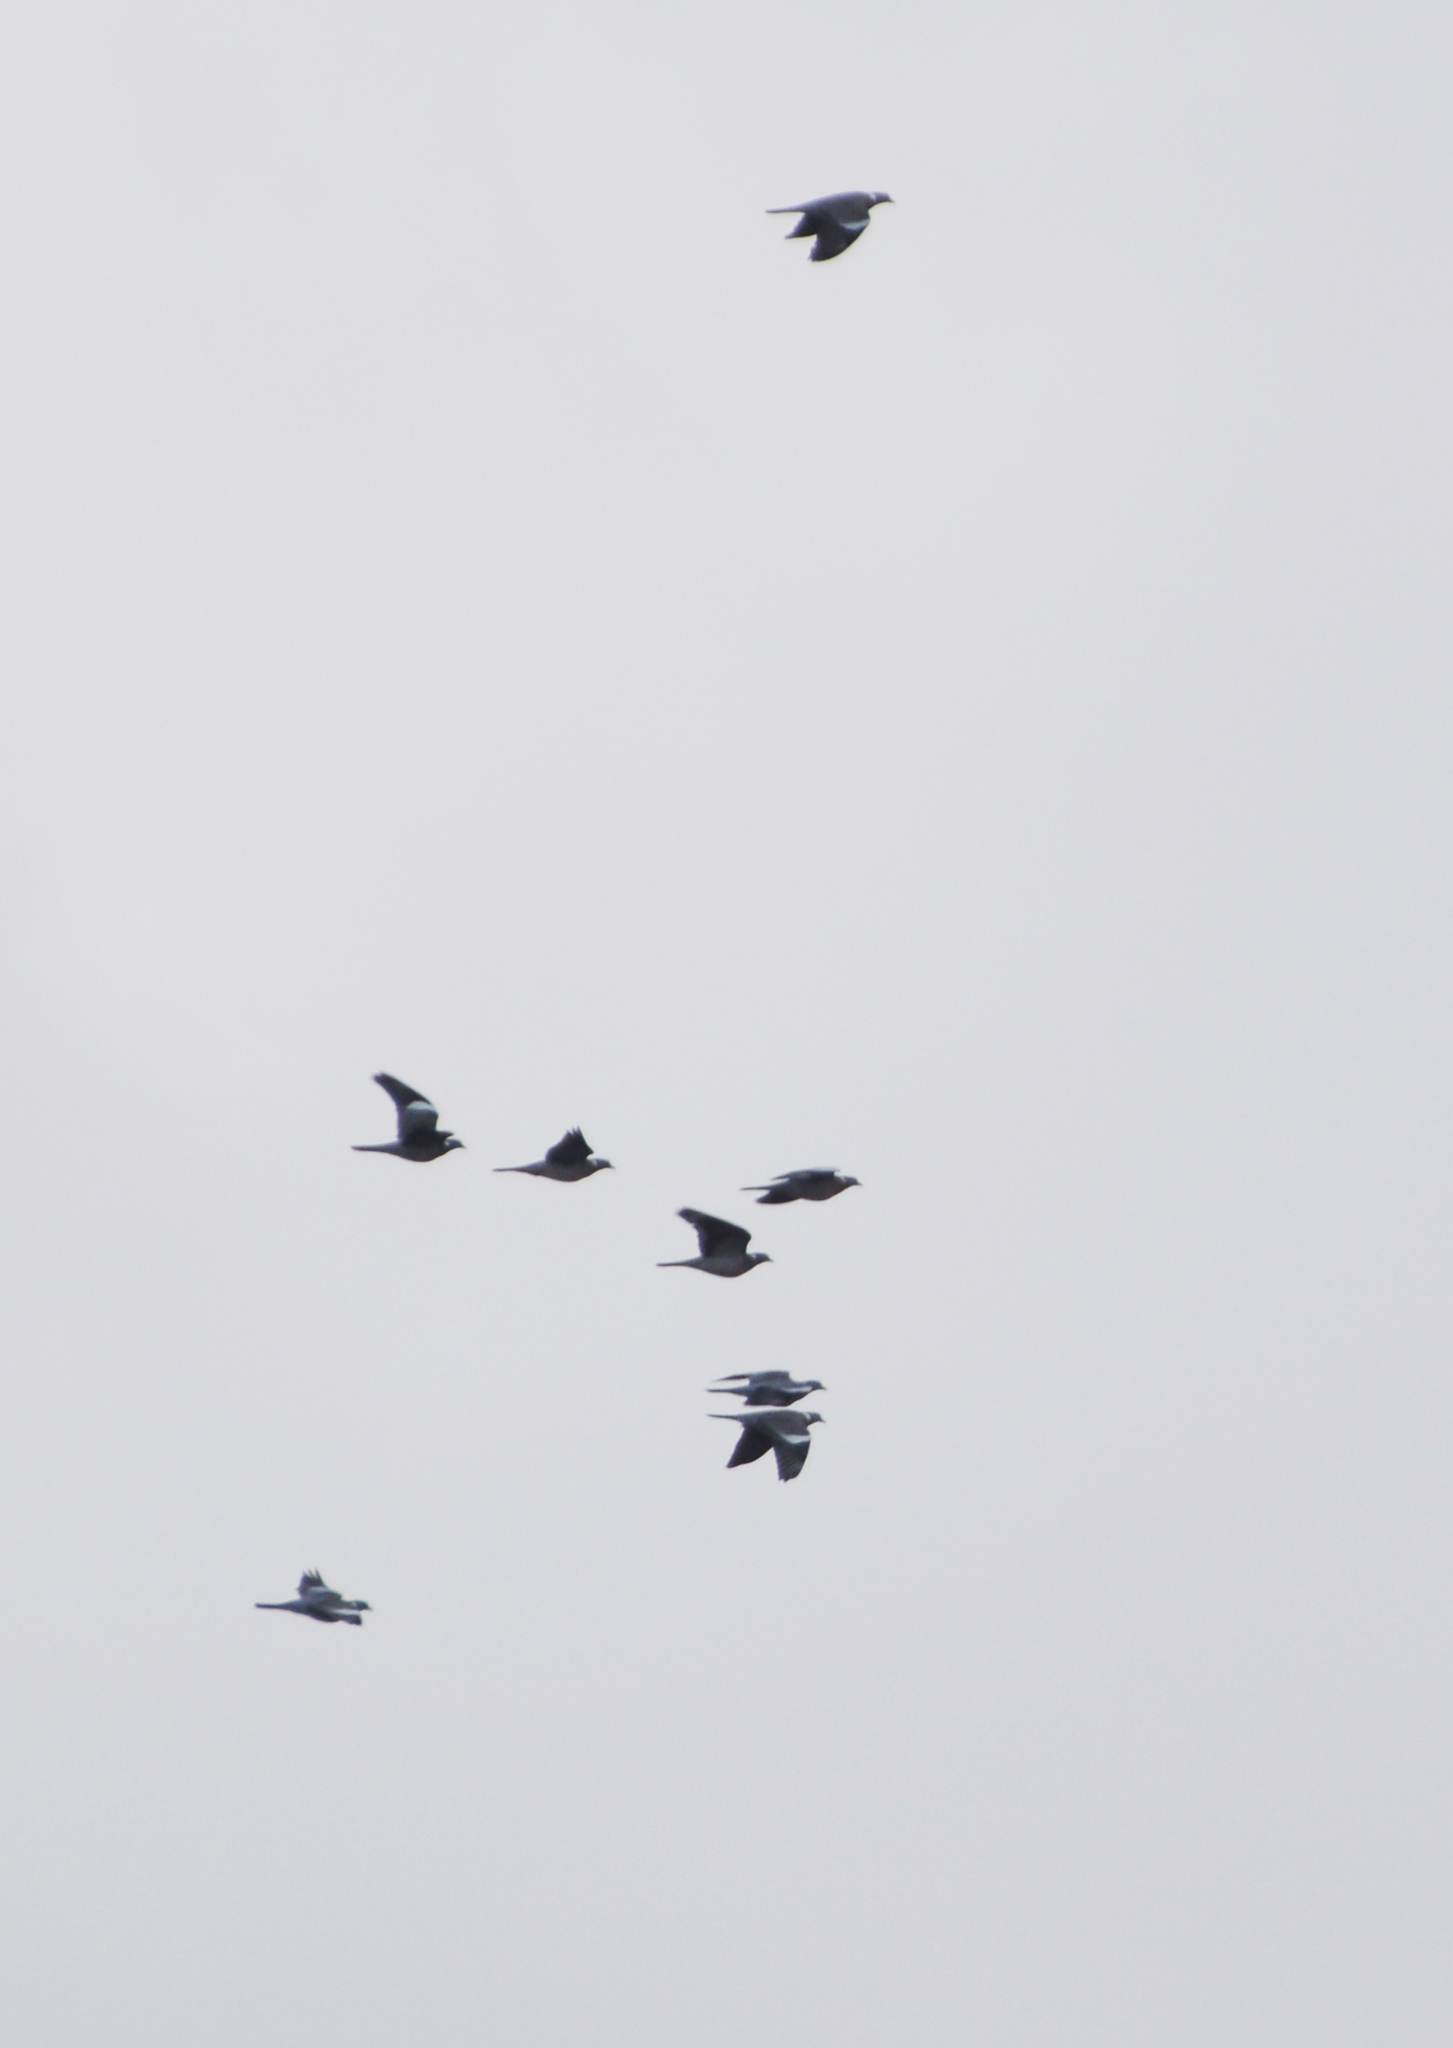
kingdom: Animalia
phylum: Chordata
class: Aves
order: Columbiformes
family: Columbidae
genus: Columba
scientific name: Columba palumbus
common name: Common wood pigeon
